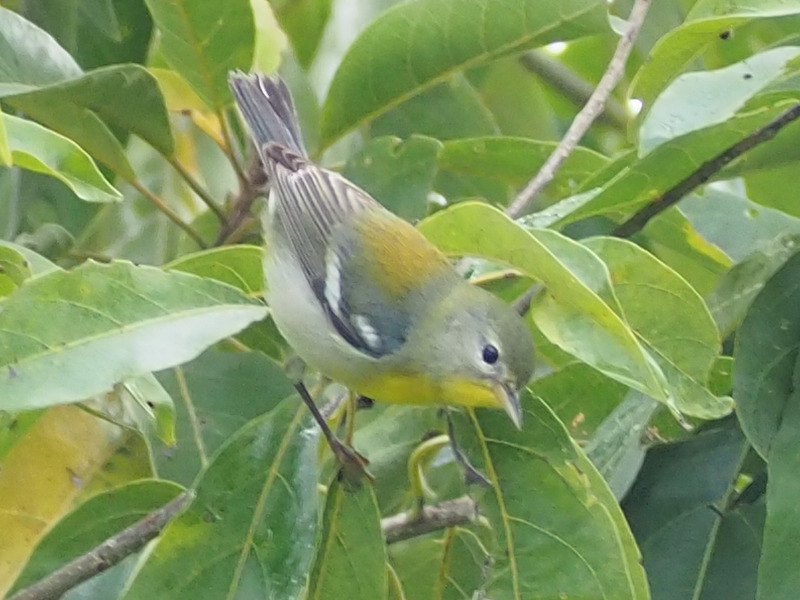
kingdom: Animalia
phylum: Chordata
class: Aves
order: Passeriformes
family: Parulidae
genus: Setophaga
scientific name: Setophaga americana
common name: Northern parula
